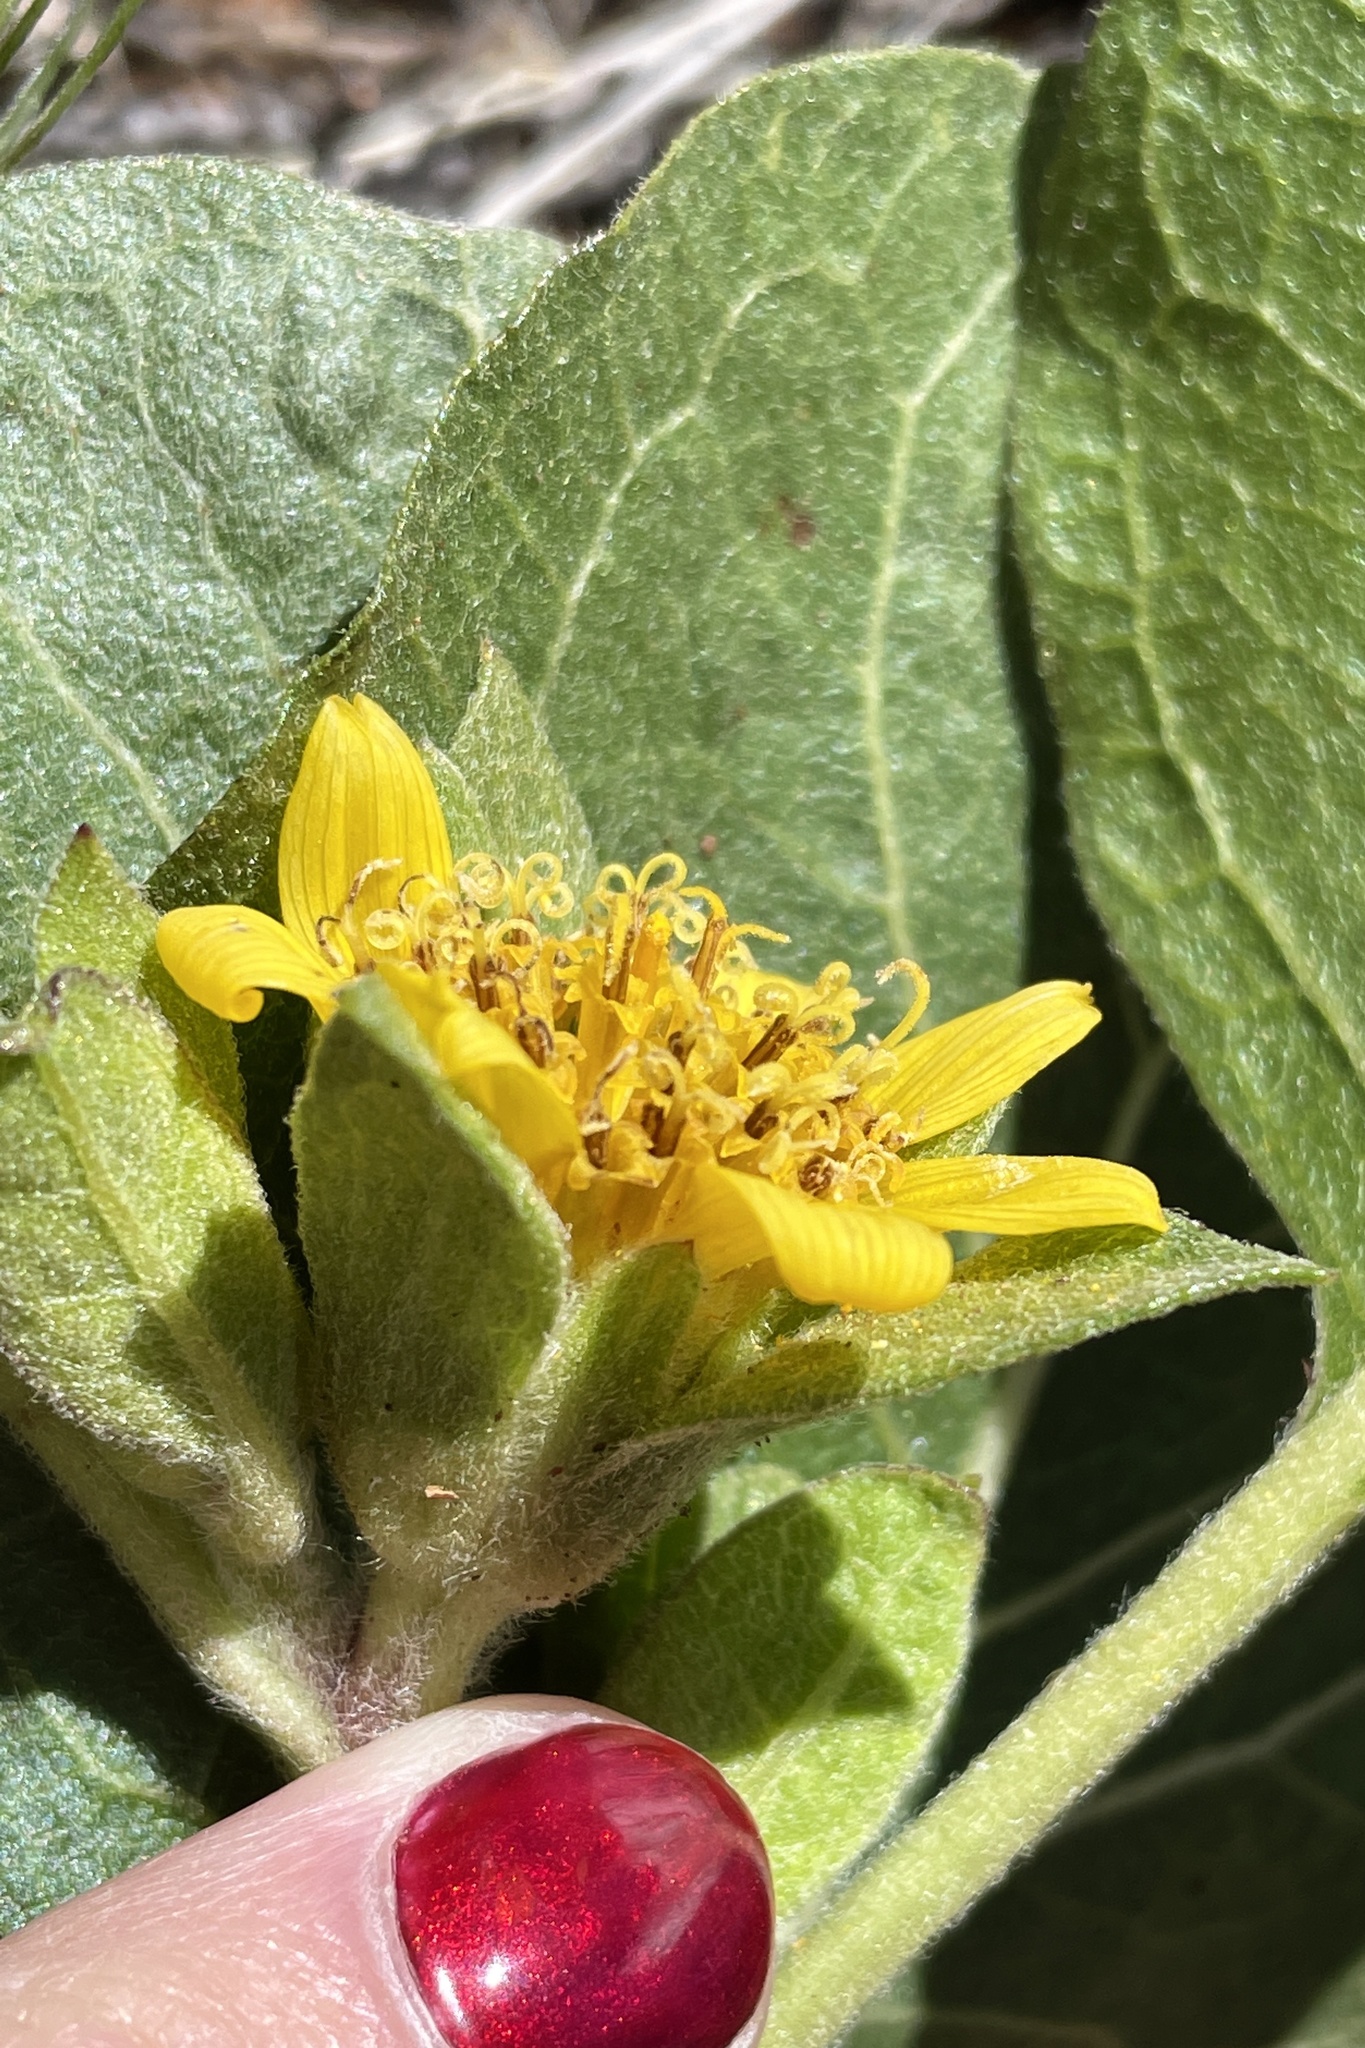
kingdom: Plantae
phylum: Tracheophyta
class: Magnoliopsida
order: Asterales
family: Asteraceae
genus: Agnorhiza
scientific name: Agnorhiza ovata
